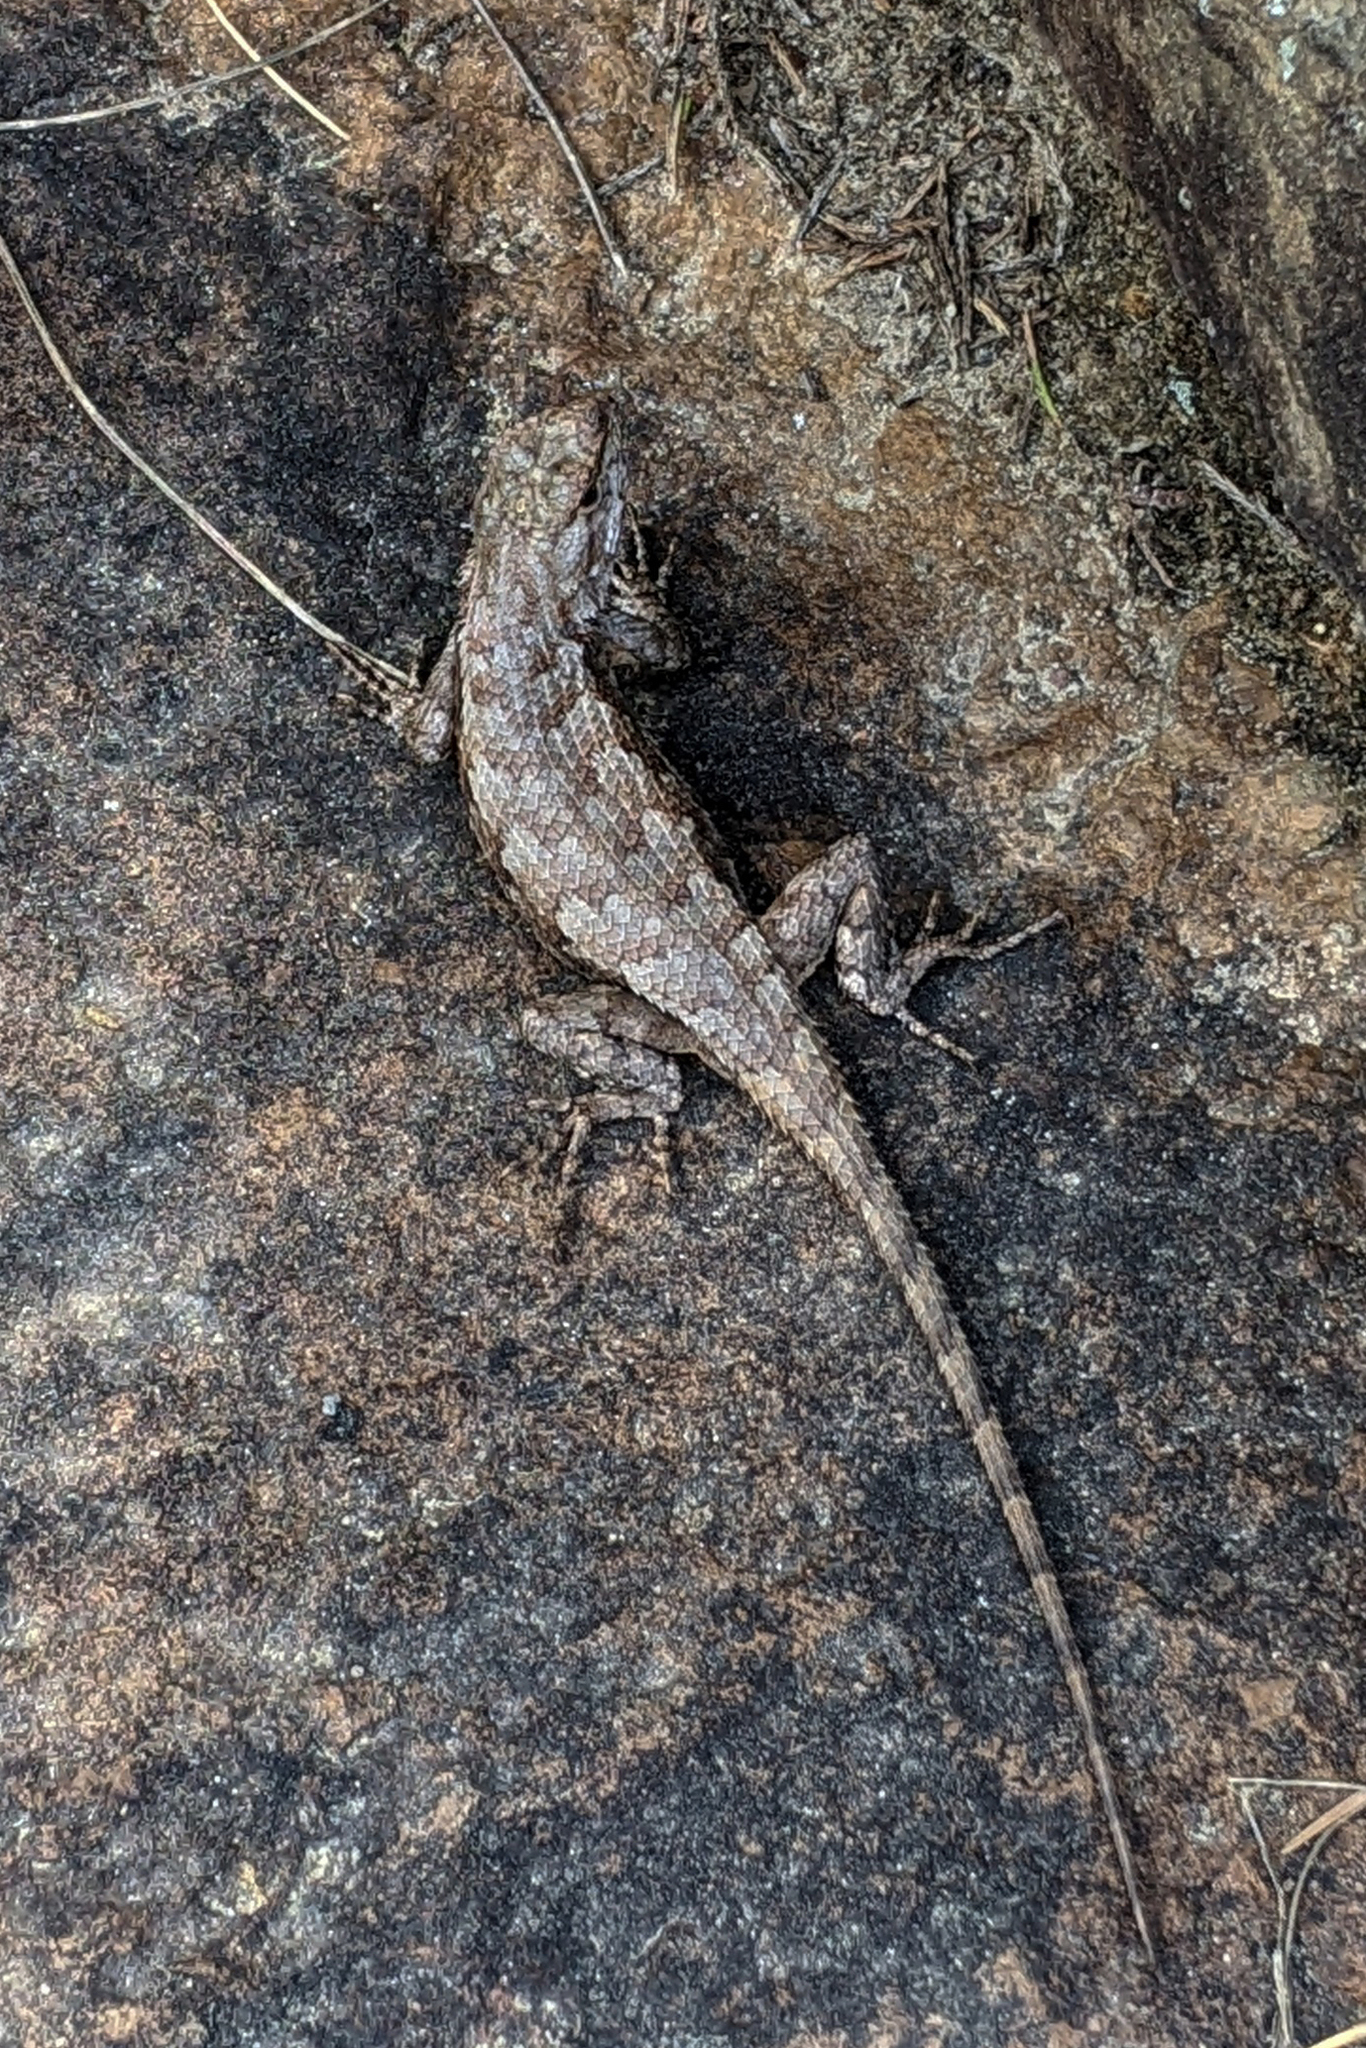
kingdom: Animalia
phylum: Chordata
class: Squamata
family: Phrynosomatidae
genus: Sceloporus
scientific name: Sceloporus undulatus
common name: Eastern fence lizard
